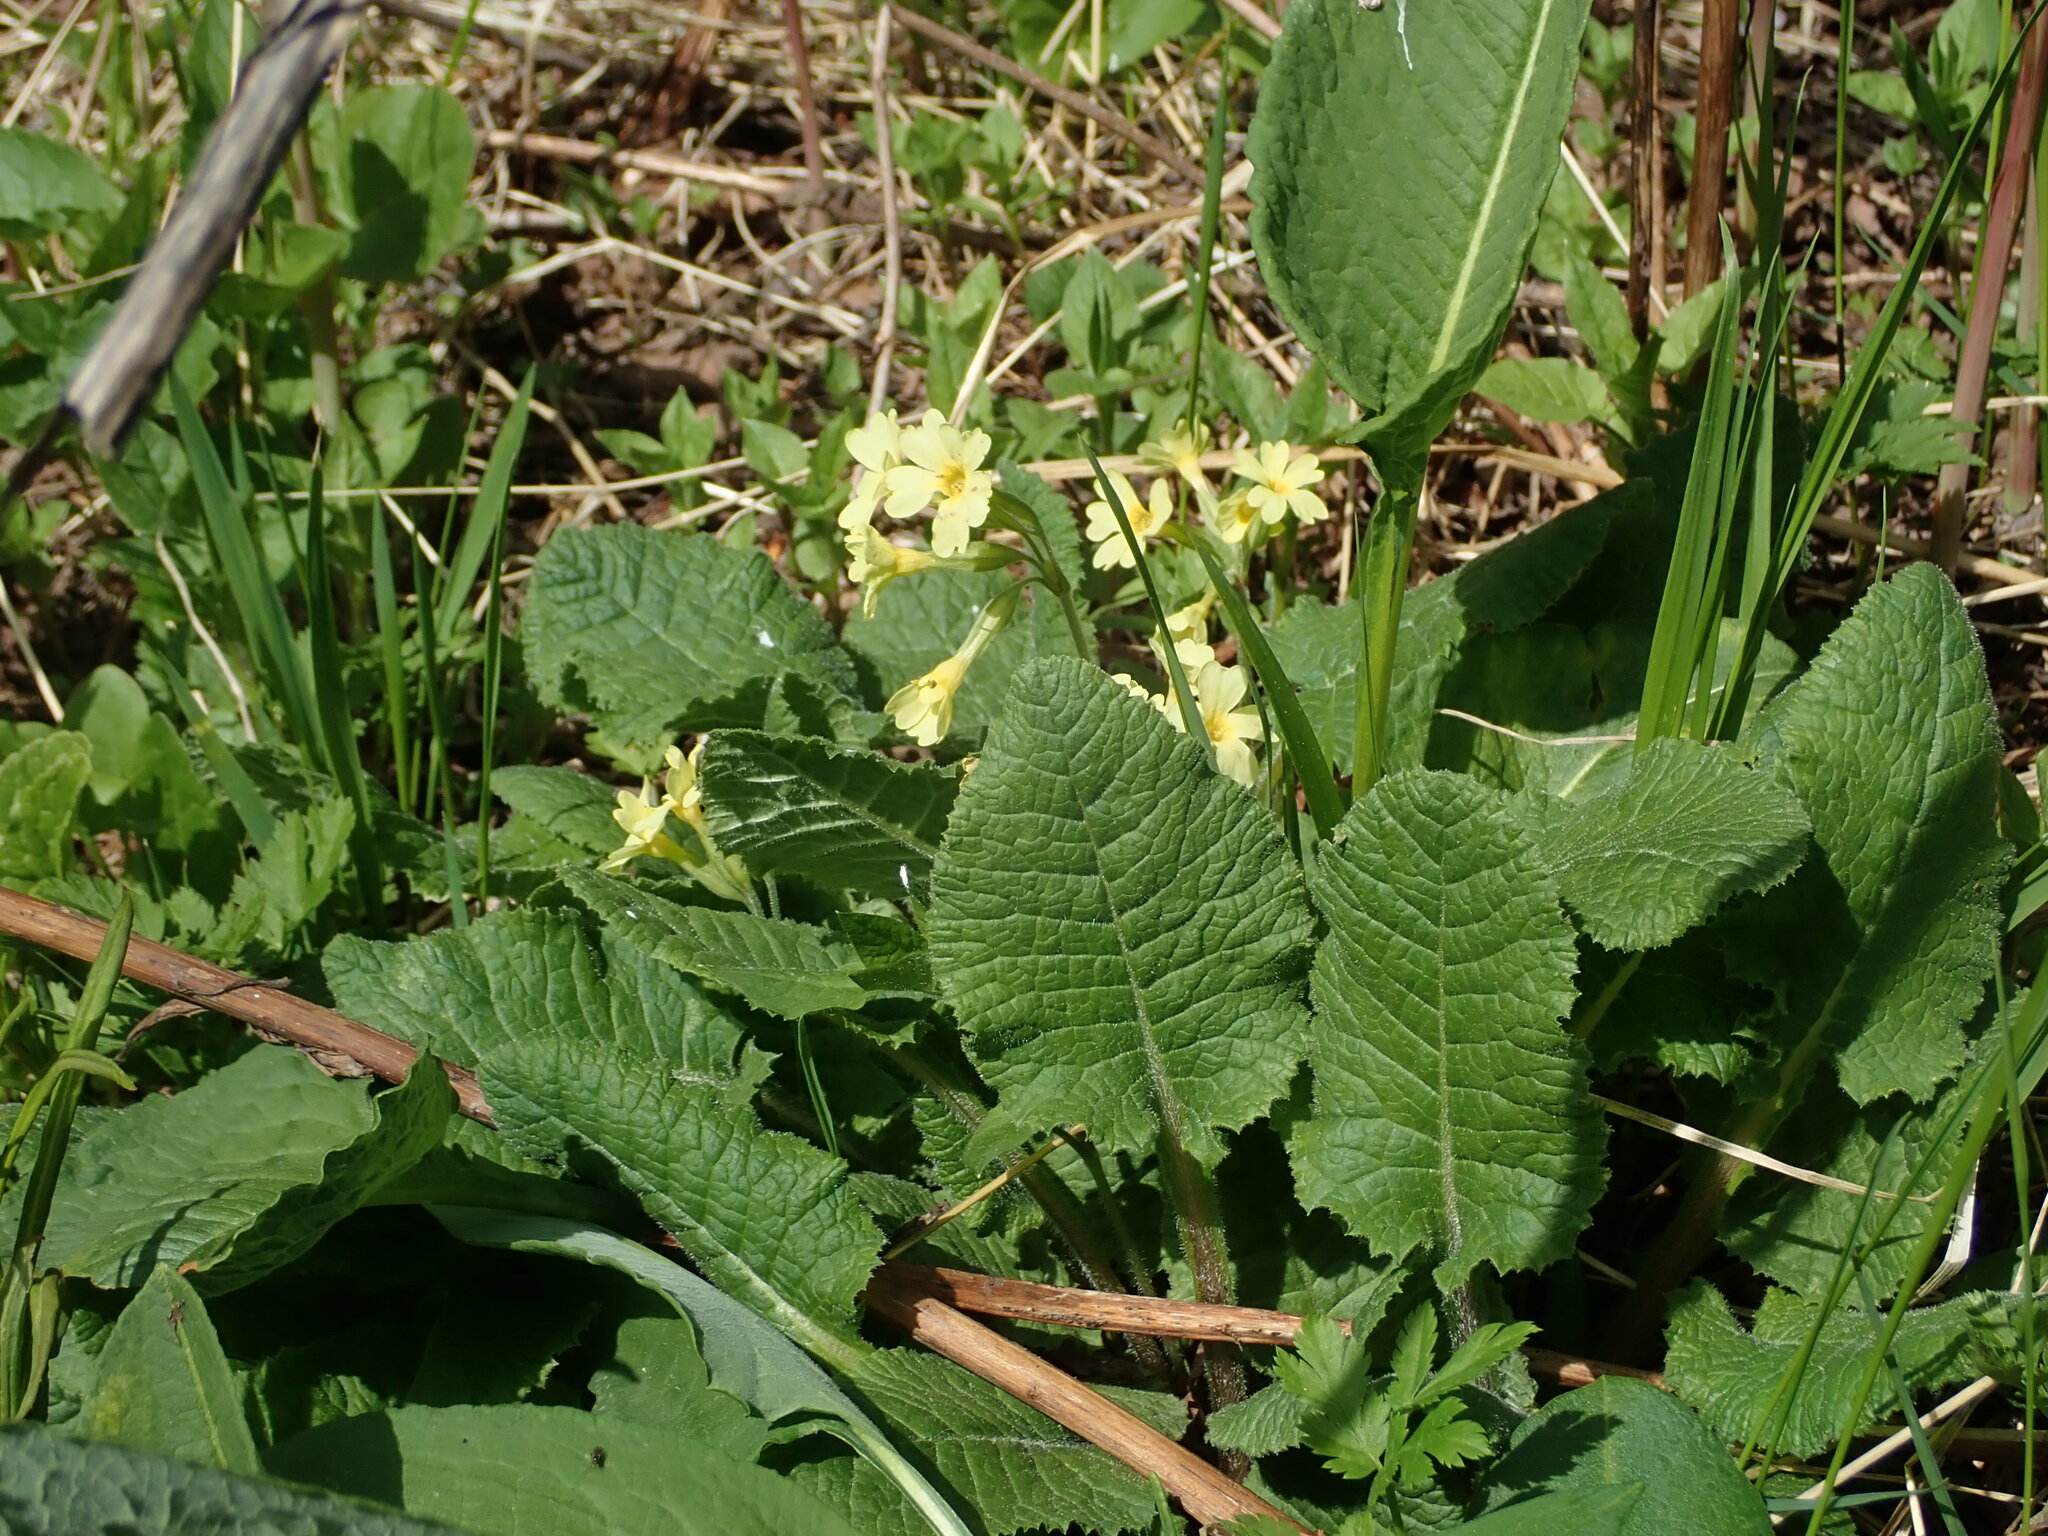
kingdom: Plantae
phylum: Tracheophyta
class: Magnoliopsida
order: Ericales
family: Primulaceae
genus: Primula
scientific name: Primula elatior
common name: Oxlip
